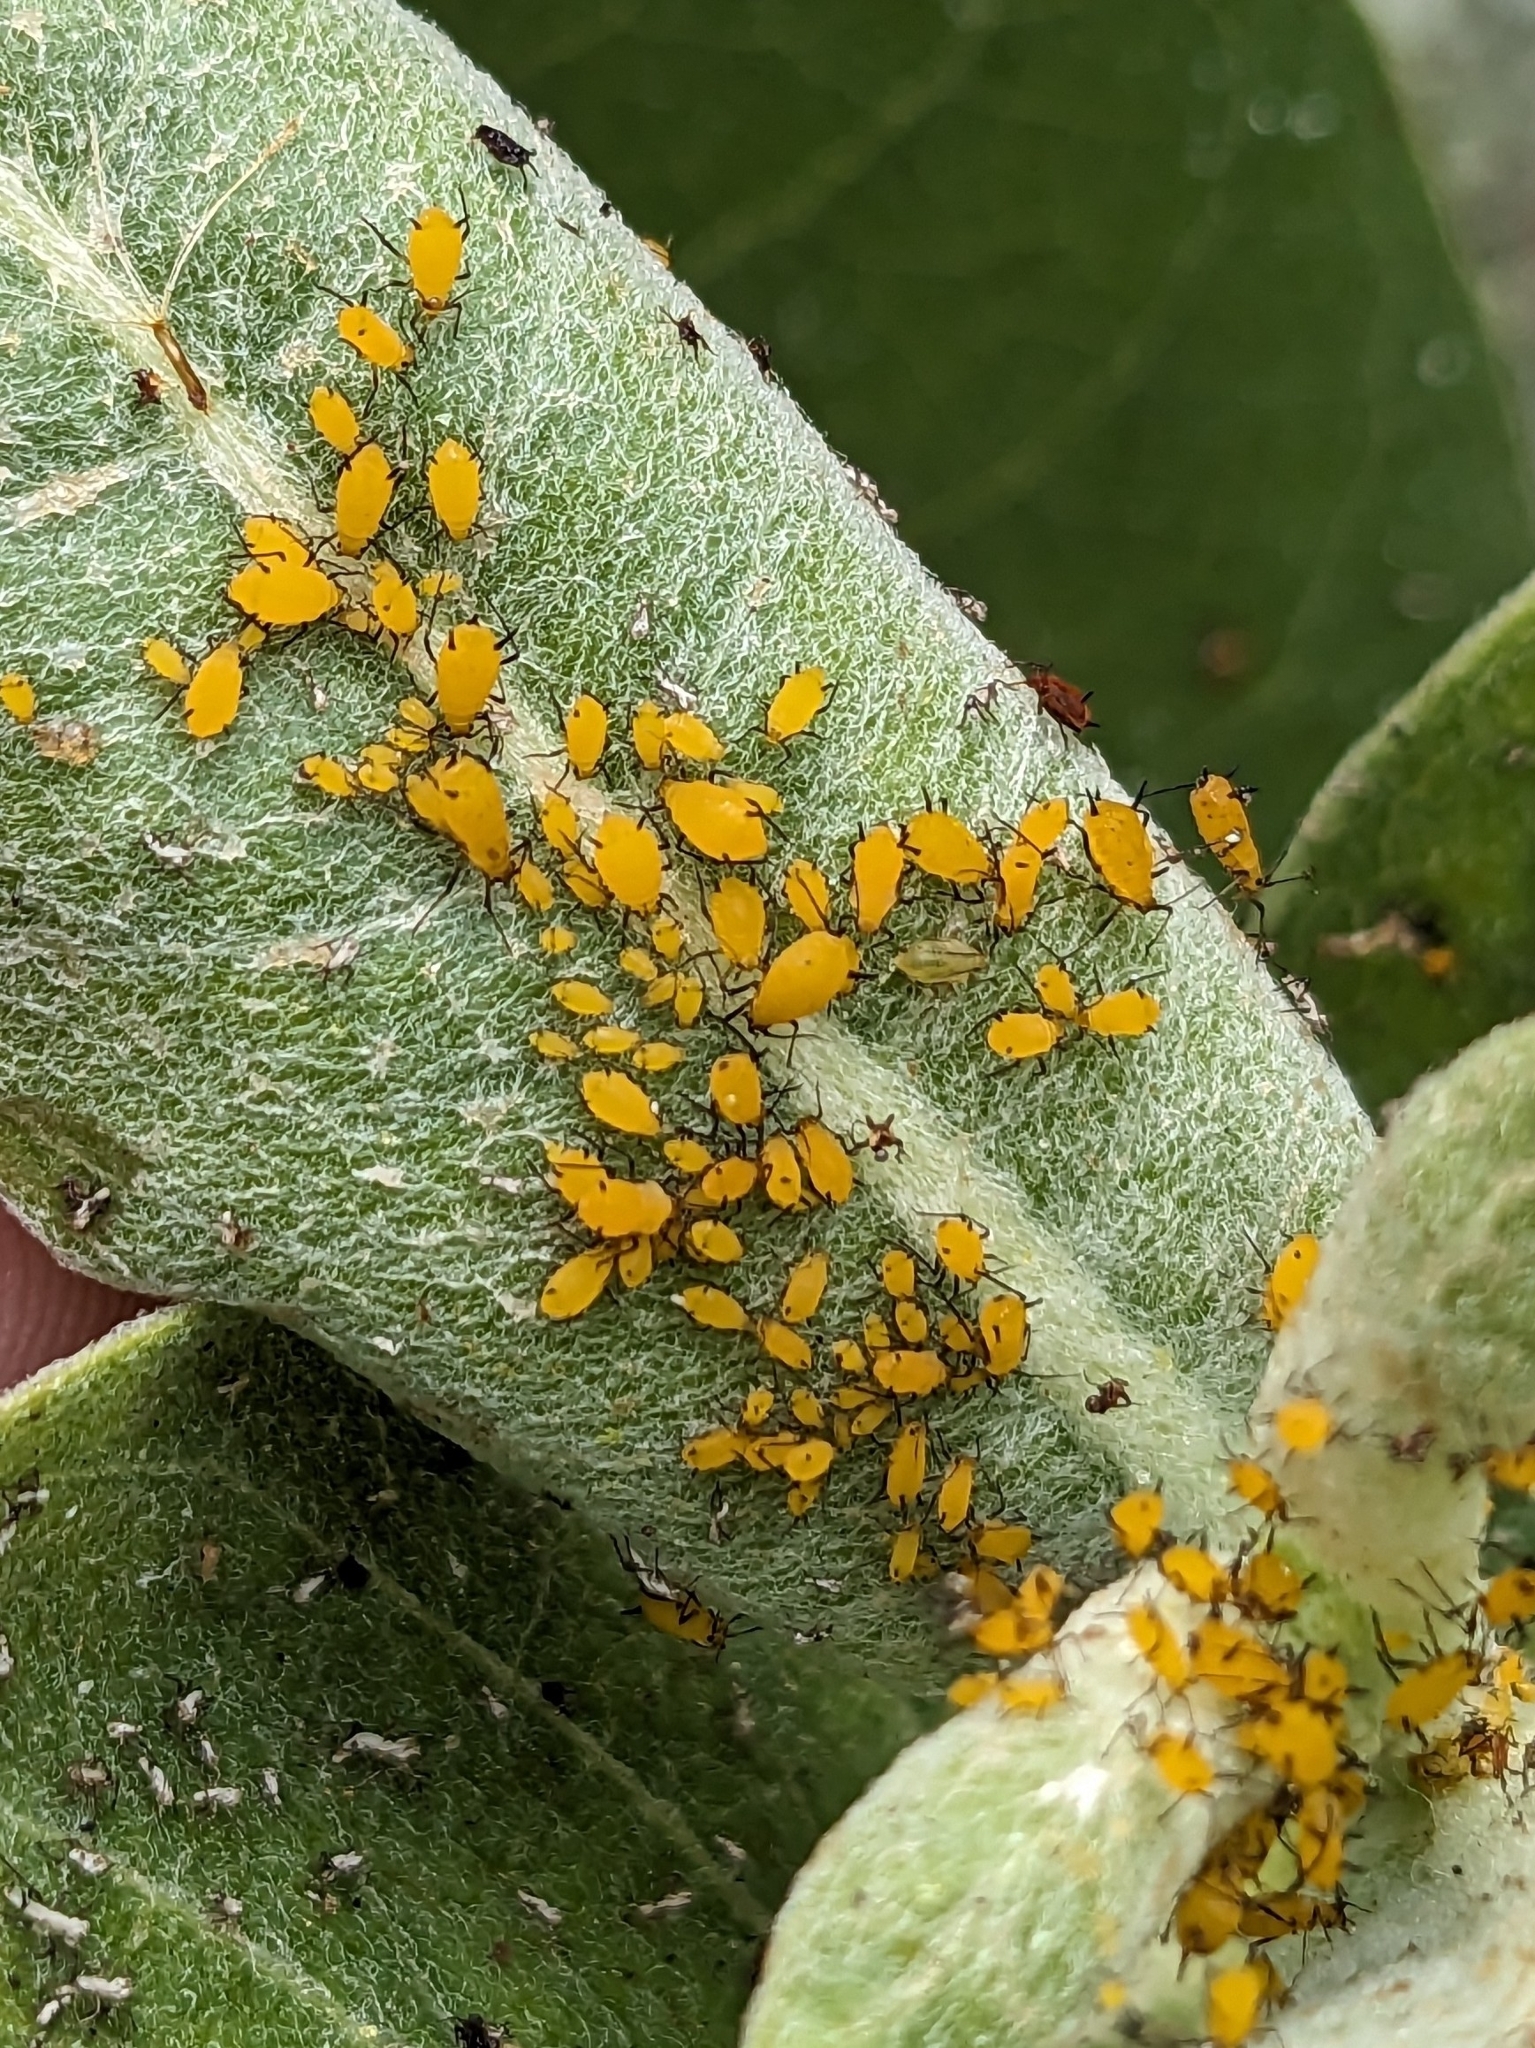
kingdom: Animalia
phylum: Arthropoda
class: Insecta
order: Hemiptera
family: Aphididae
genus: Aphis
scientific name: Aphis nerii
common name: Oleander aphid
